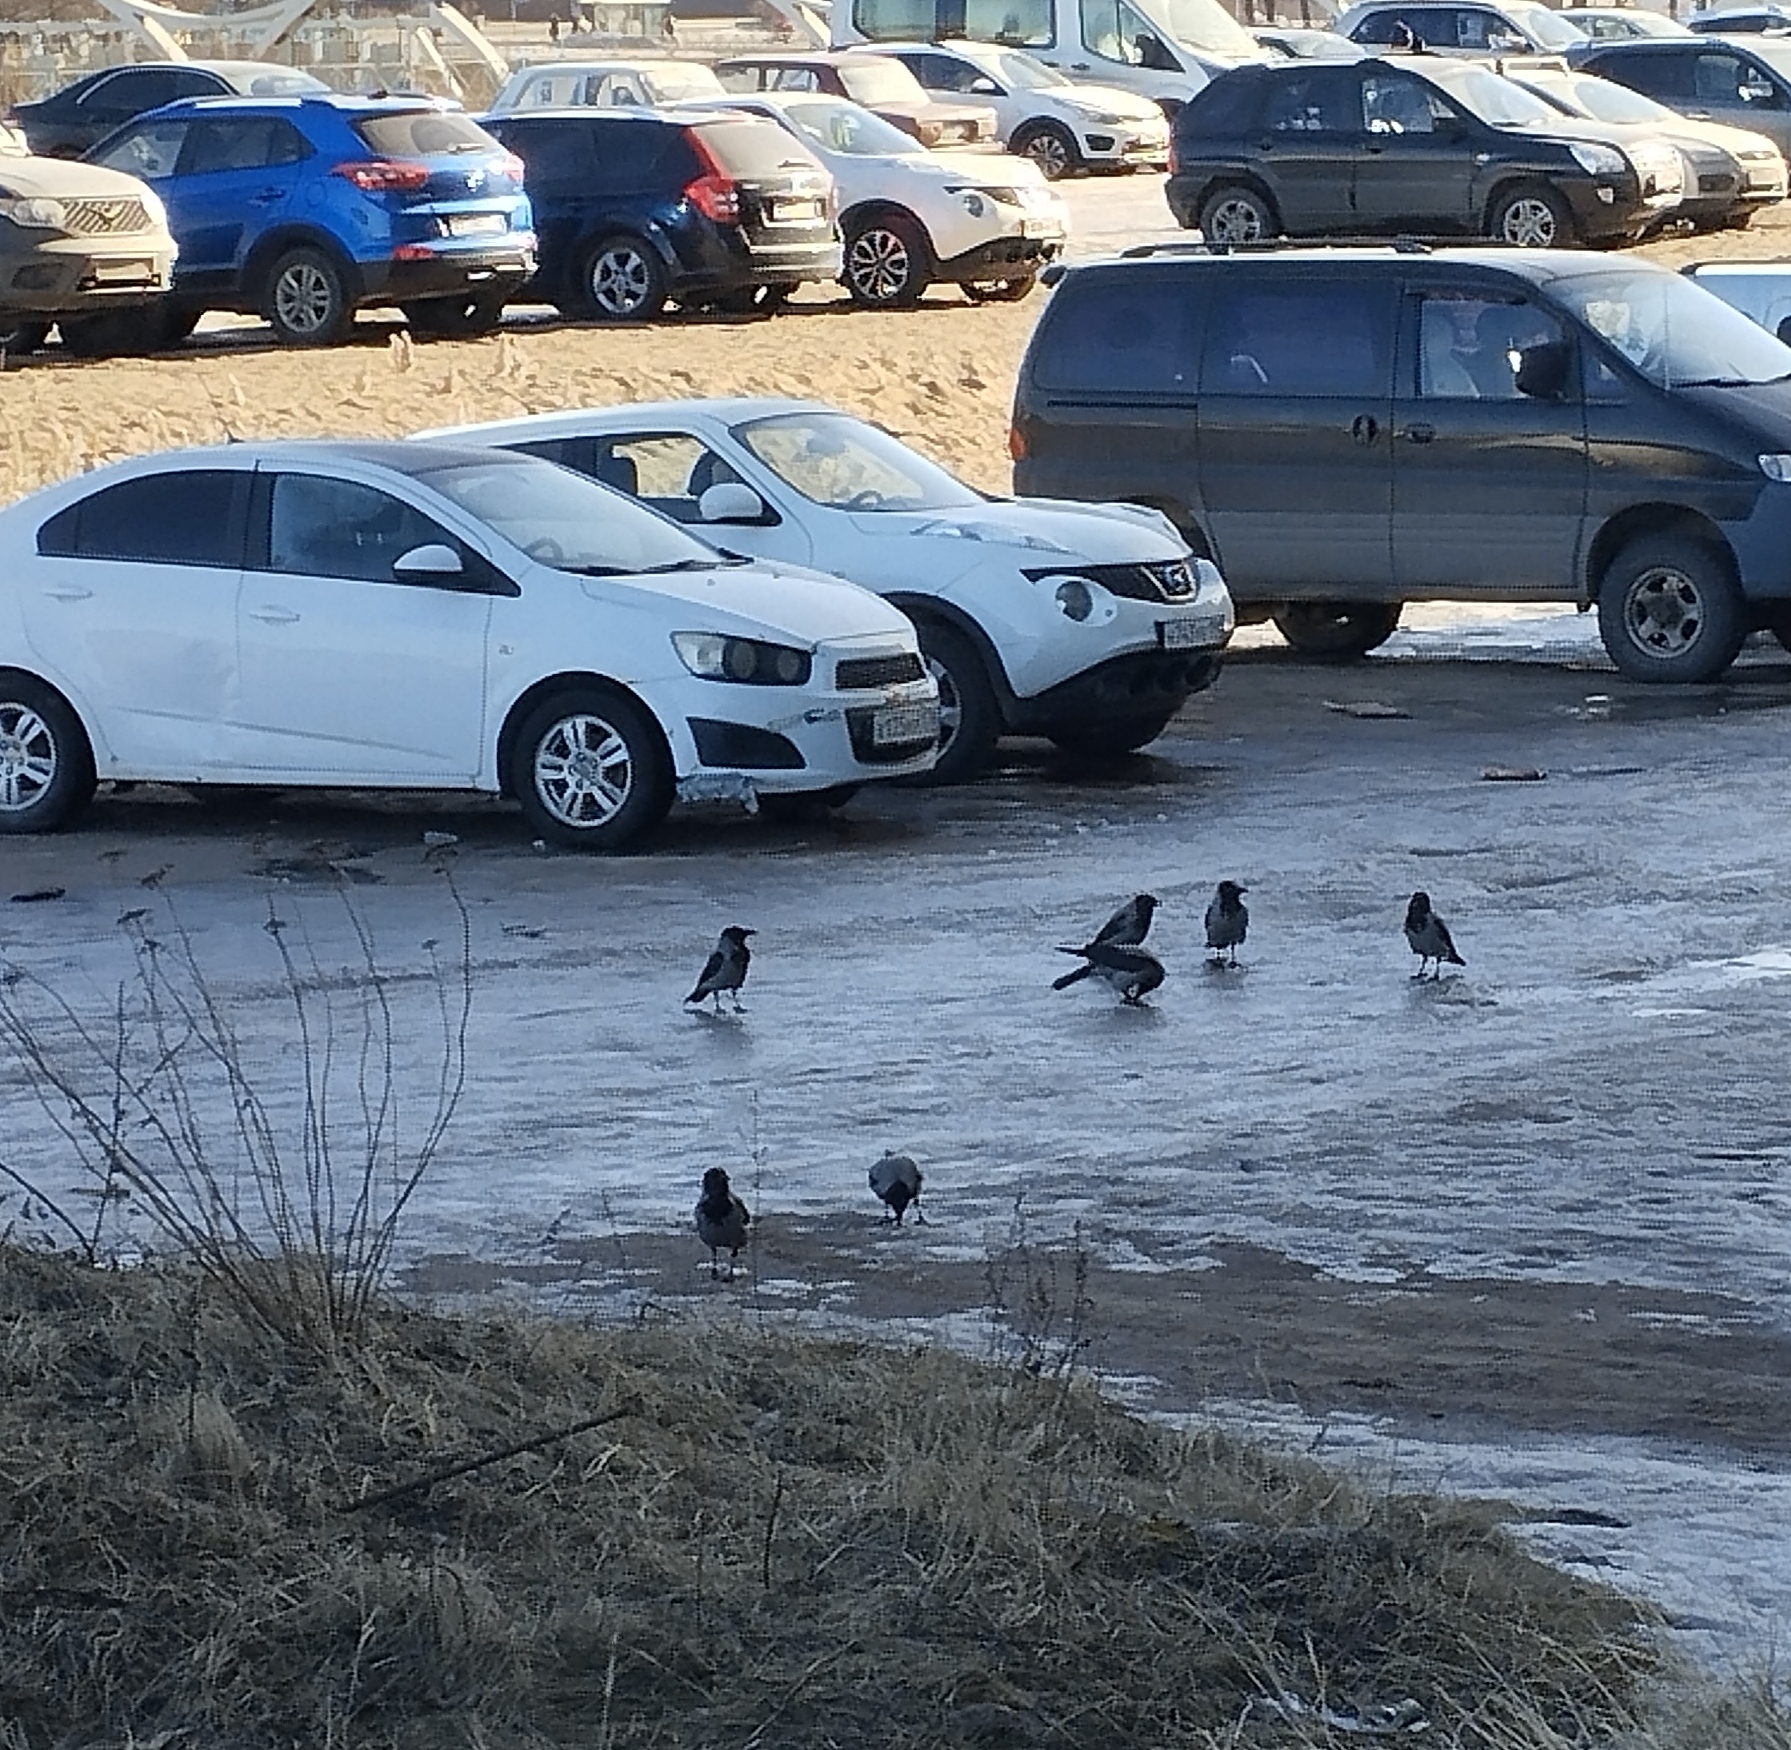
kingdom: Animalia
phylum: Chordata
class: Aves
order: Passeriformes
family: Corvidae
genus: Corvus
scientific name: Corvus cornix
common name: Hooded crow
